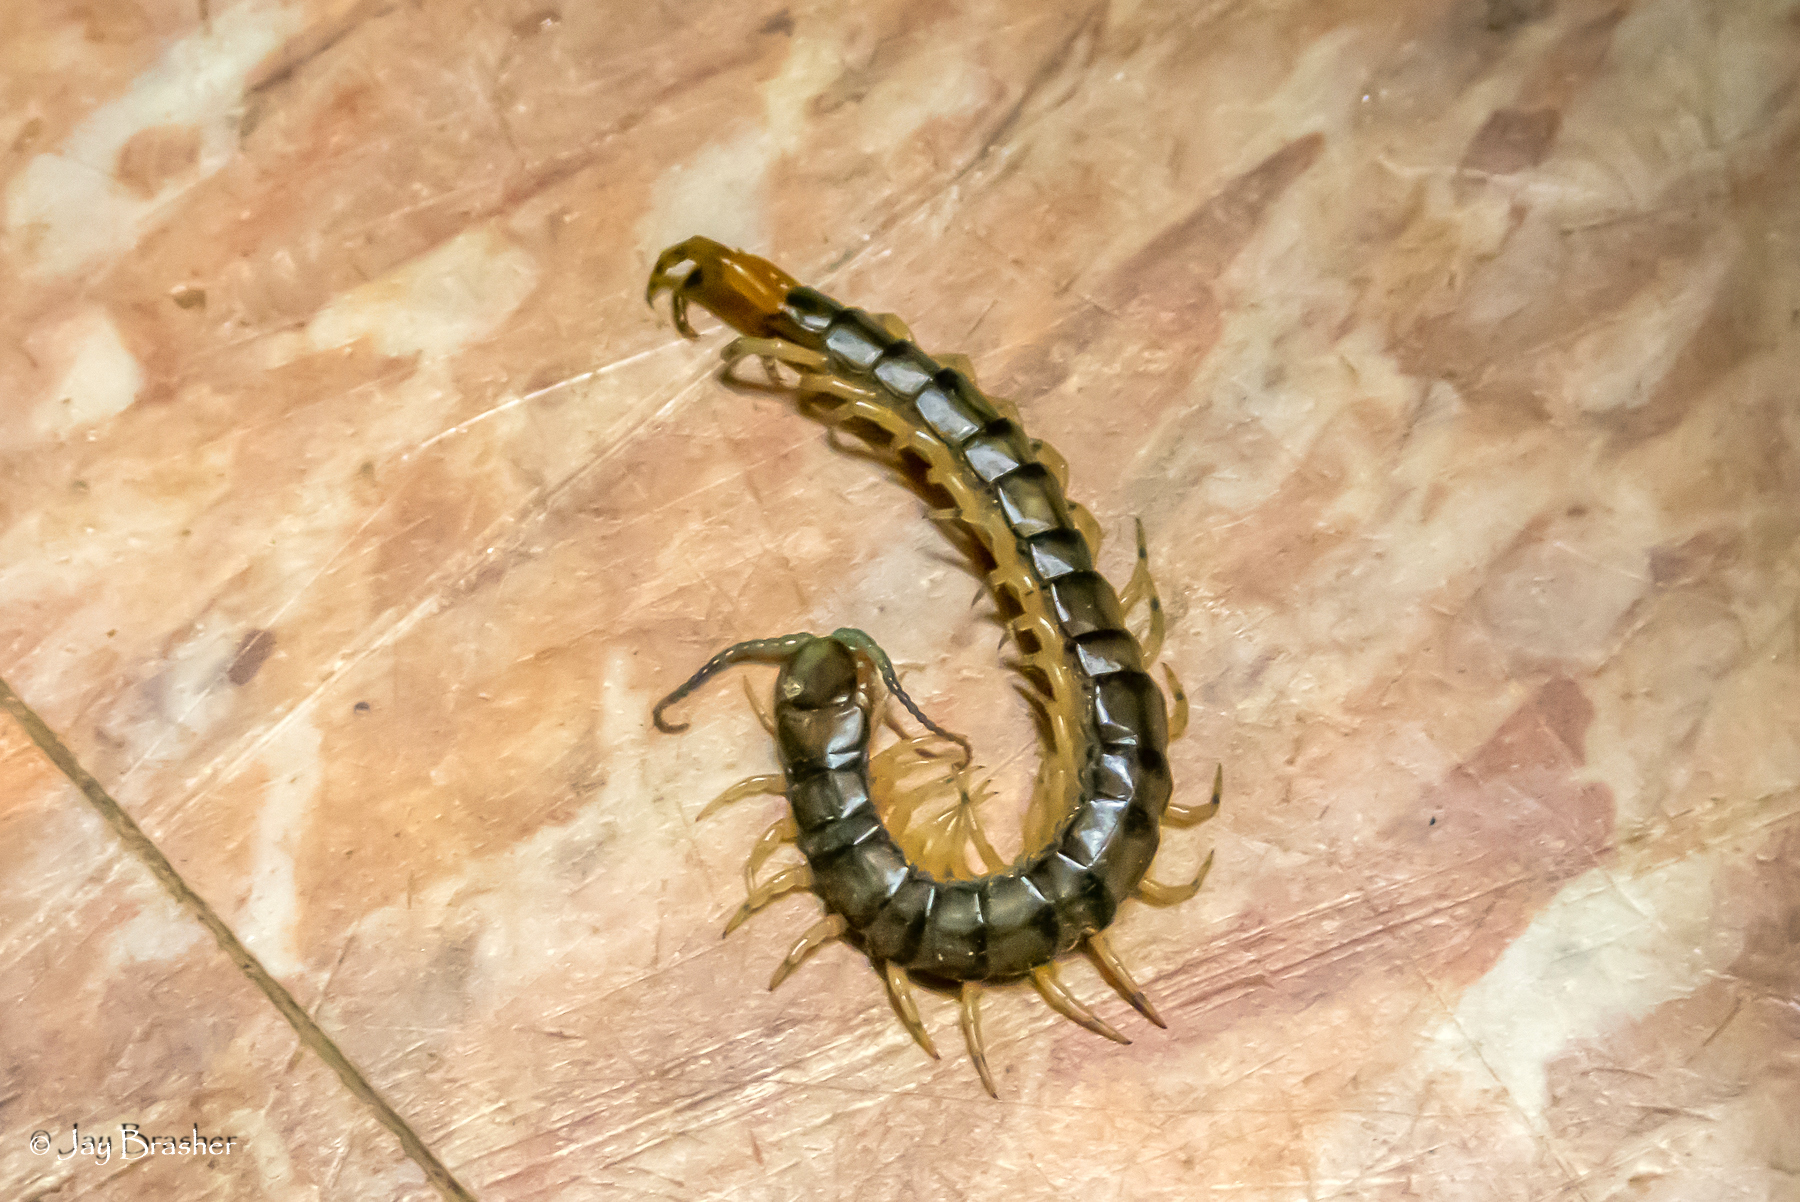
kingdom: Animalia
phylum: Arthropoda
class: Chilopoda
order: Scolopendromorpha
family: Scolopendridae
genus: Hemiscolopendra
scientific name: Hemiscolopendra marginata
